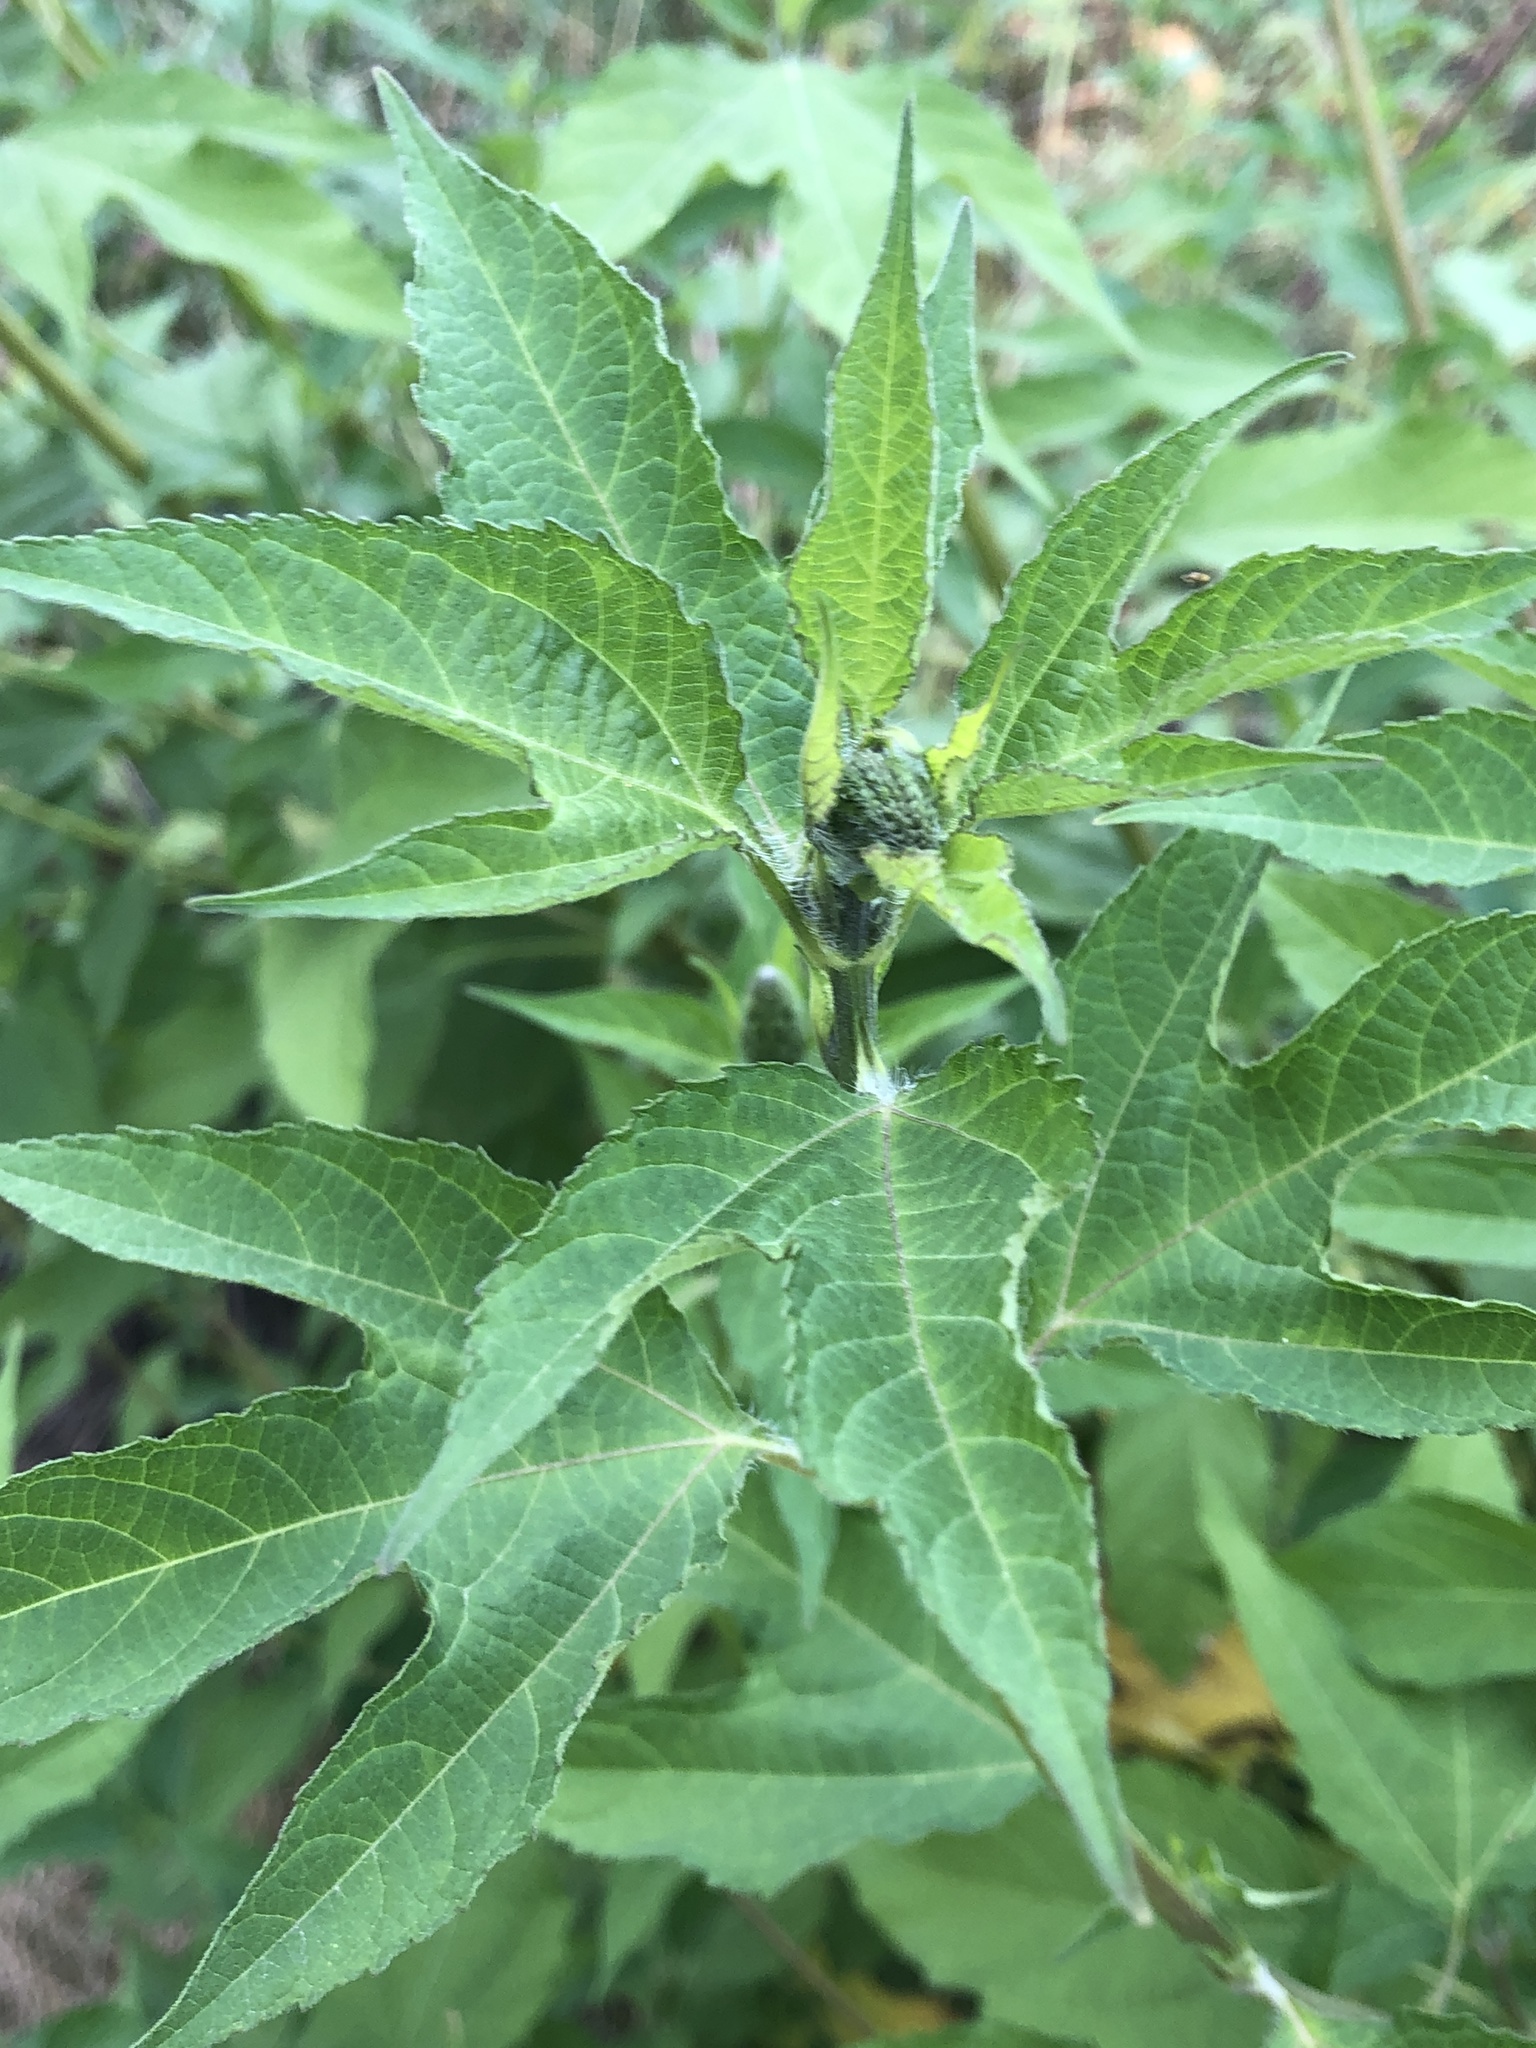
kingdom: Plantae
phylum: Tracheophyta
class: Magnoliopsida
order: Asterales
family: Asteraceae
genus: Ambrosia
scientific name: Ambrosia trifida
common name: Giant ragweed
